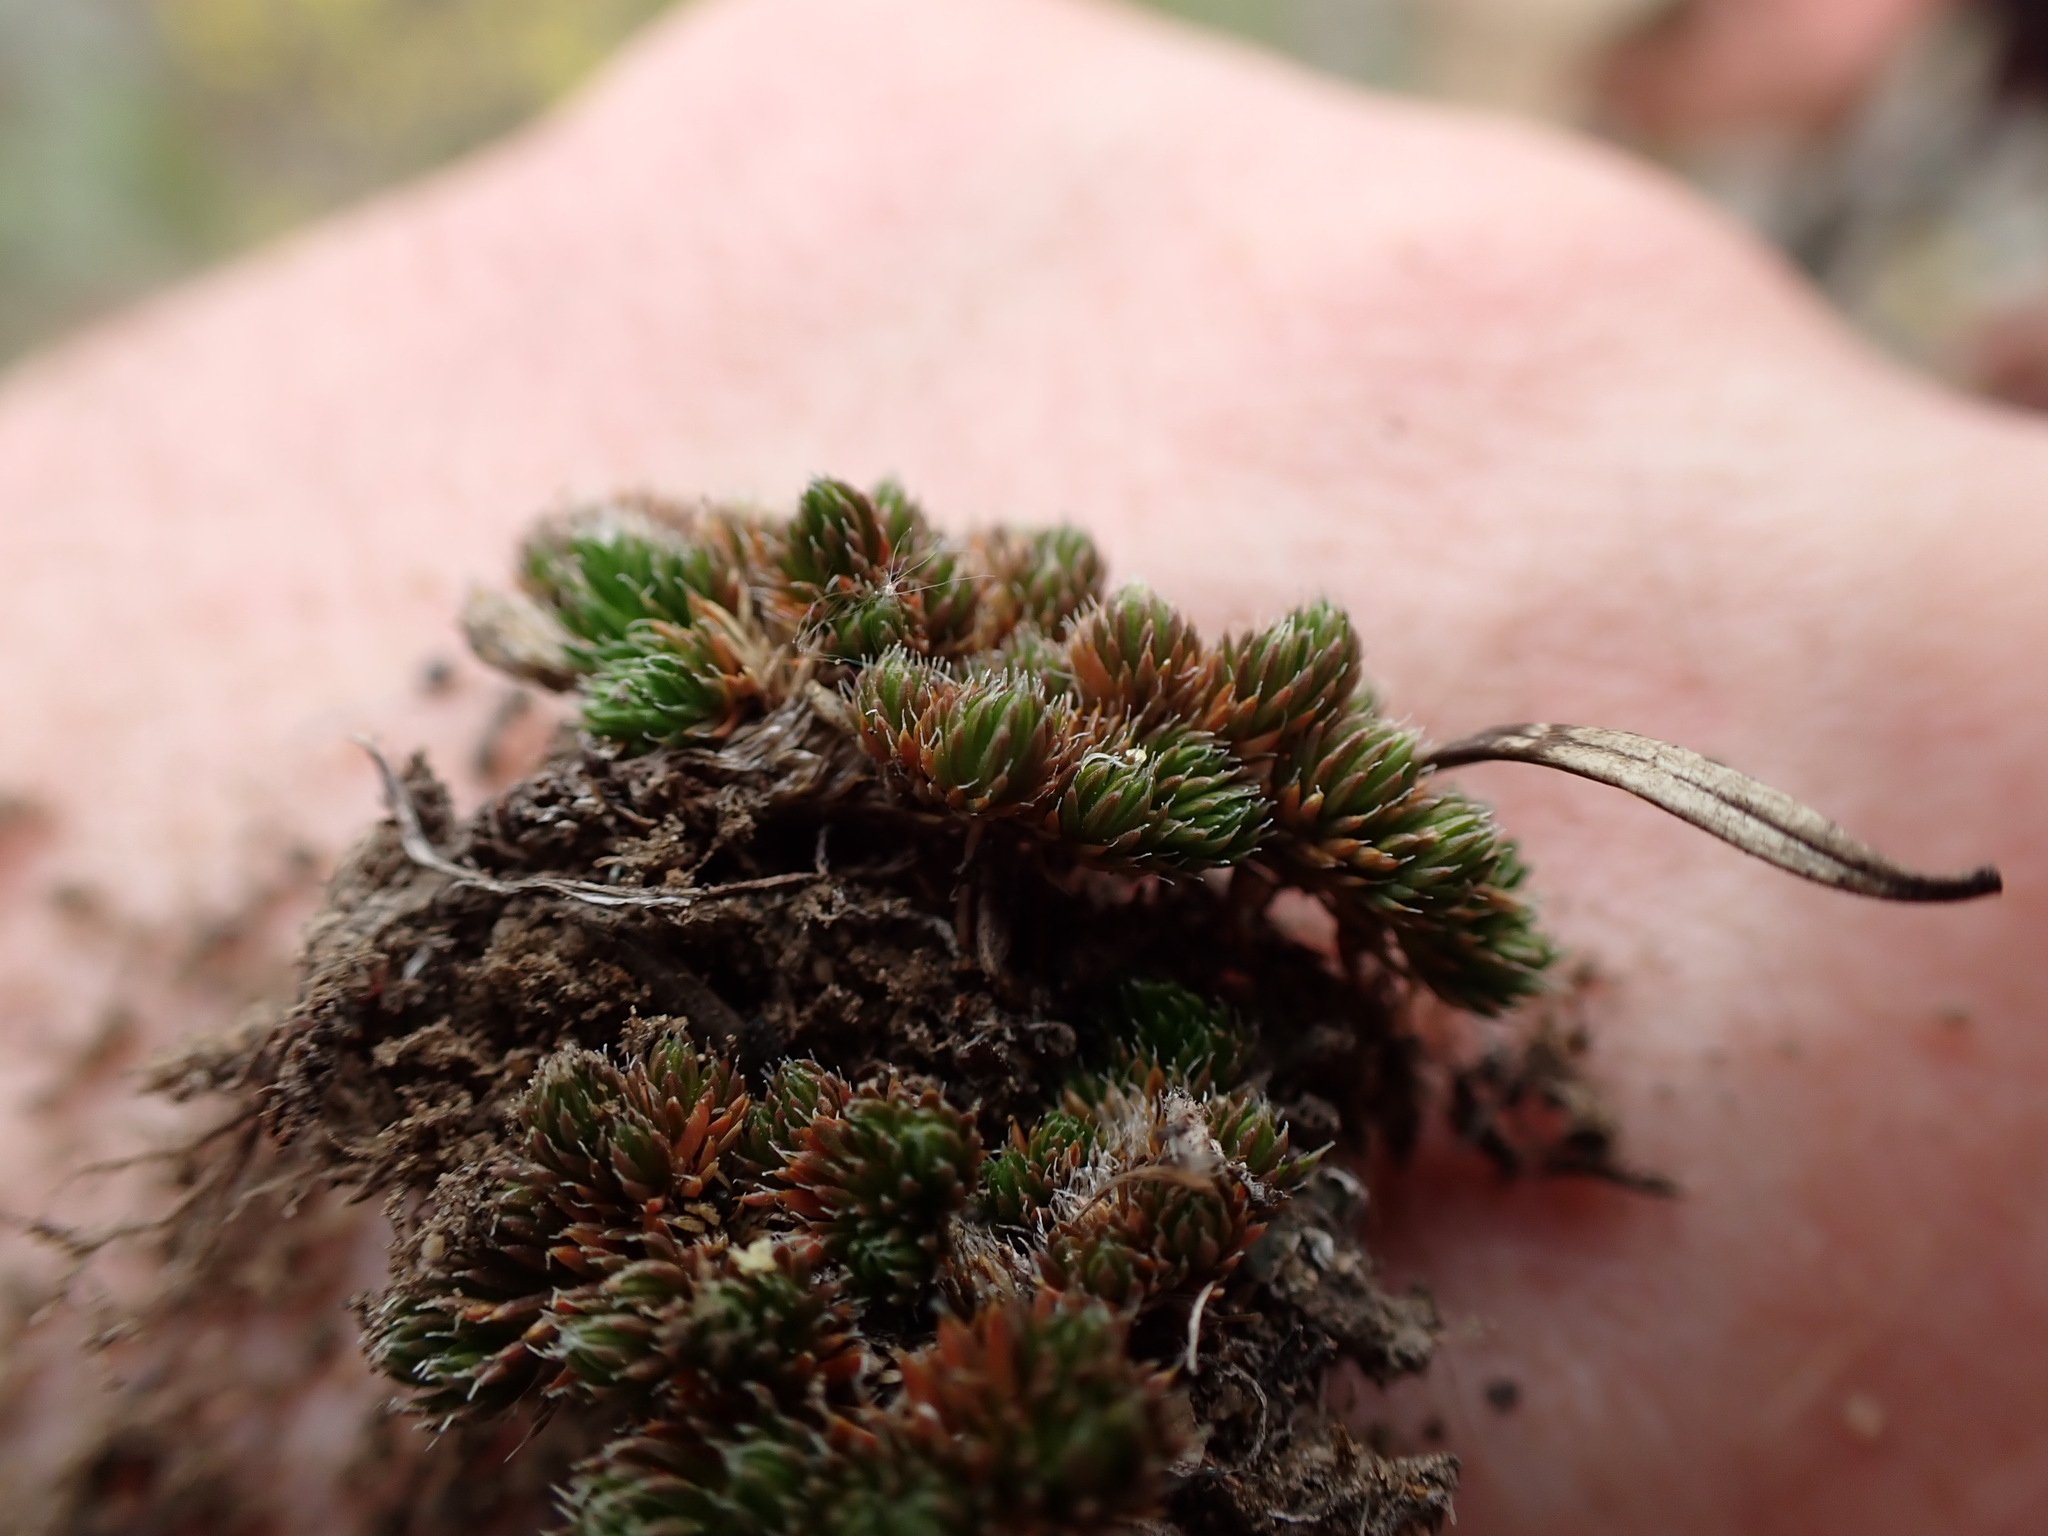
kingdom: Plantae
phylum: Tracheophyta
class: Lycopodiopsida
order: Selaginellales
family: Selaginellaceae
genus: Selaginella
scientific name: Selaginella densa
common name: Mountain spike-moss
